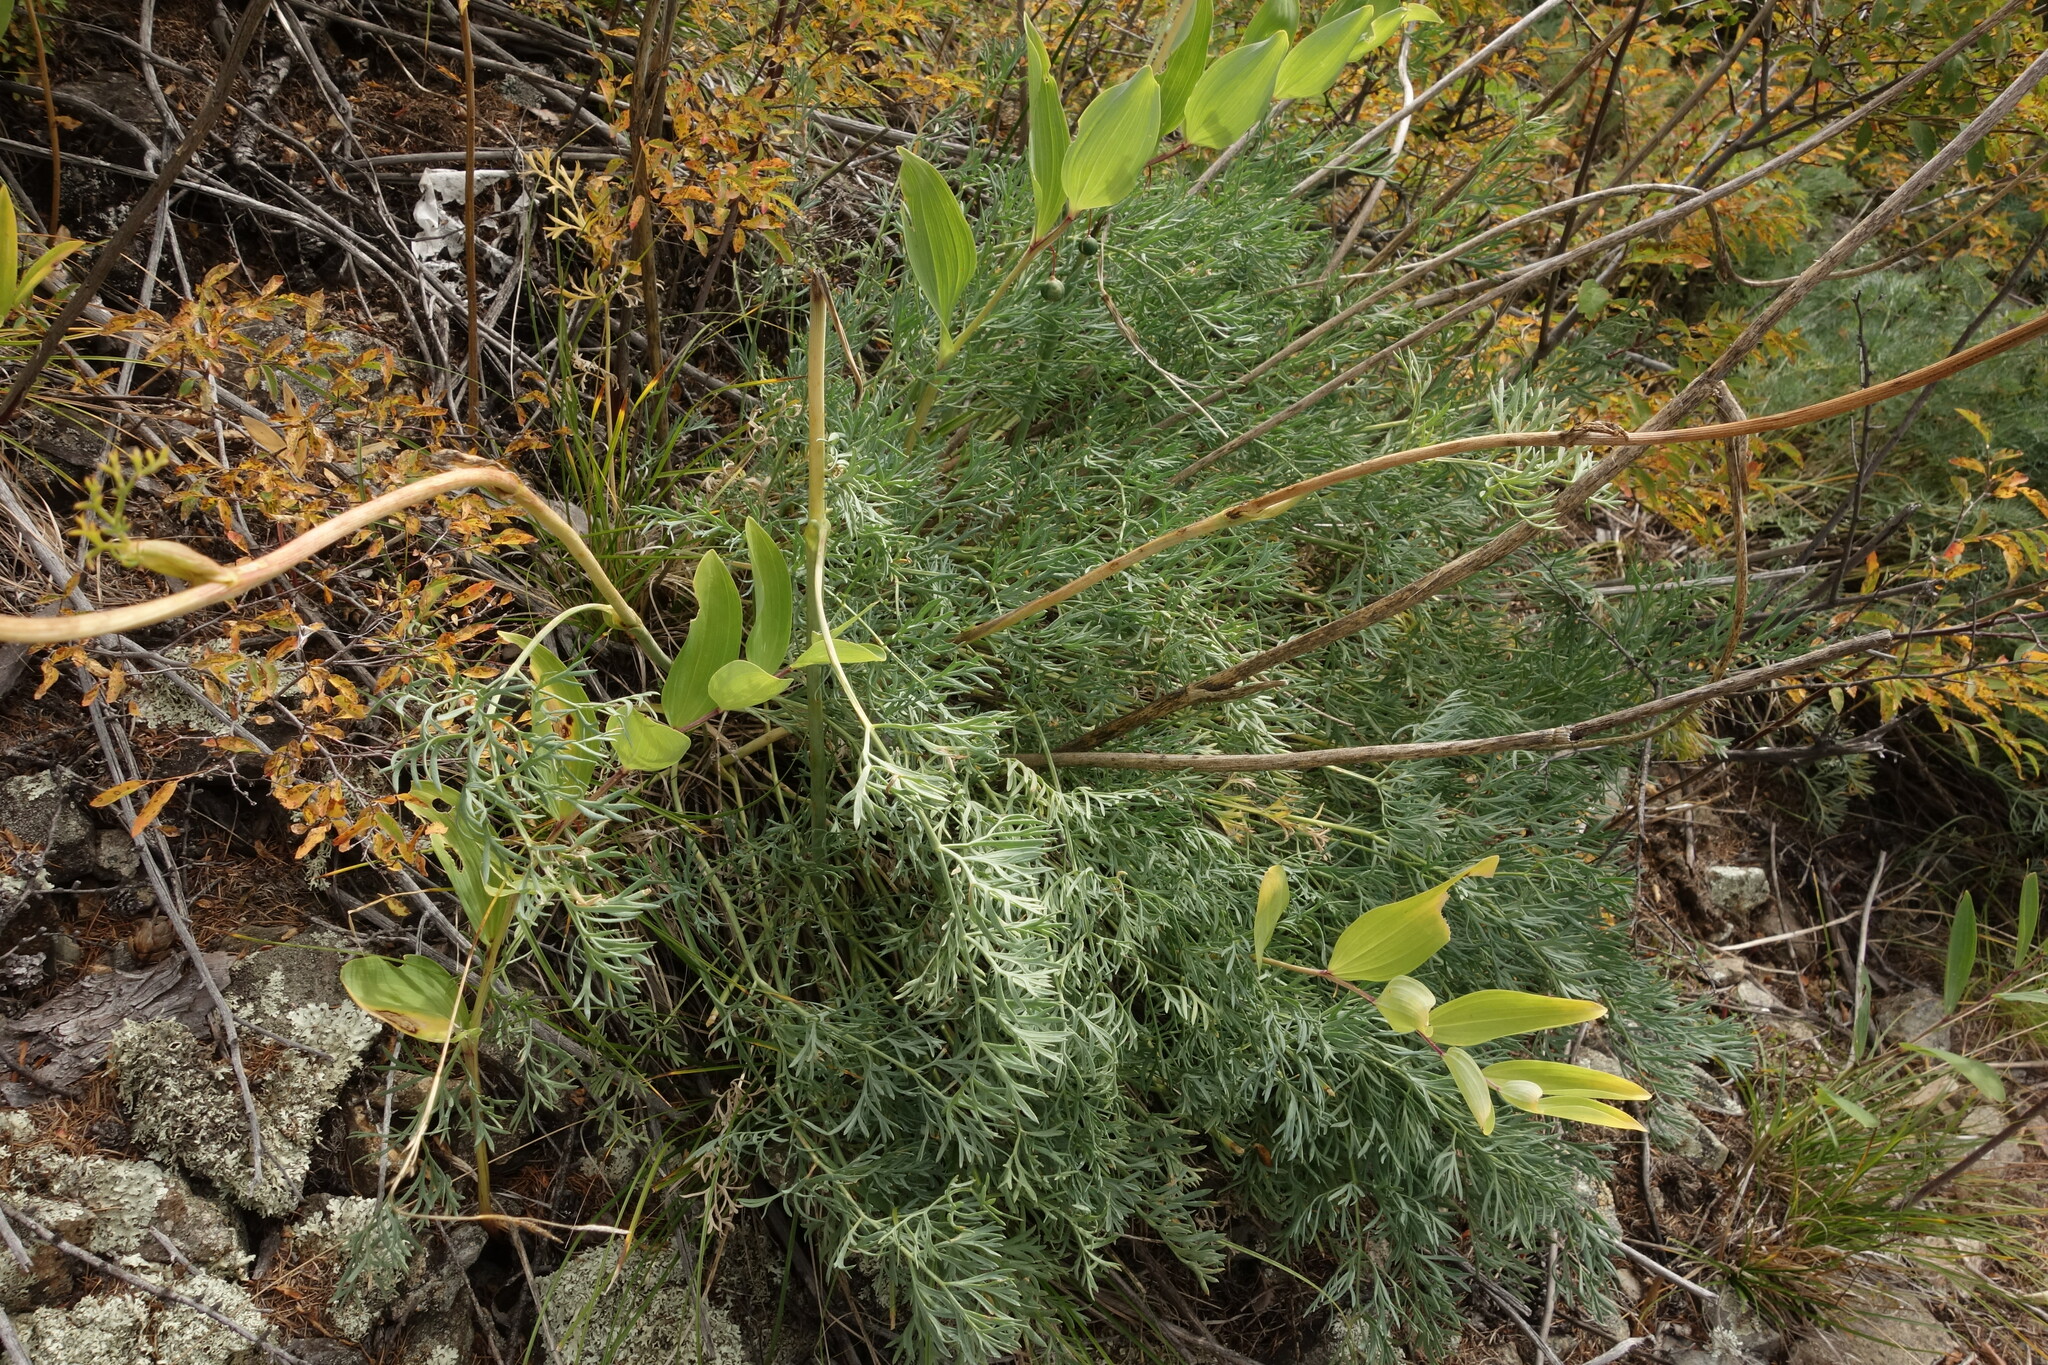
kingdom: Plantae
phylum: Tracheophyta
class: Magnoliopsida
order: Apiales
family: Apiaceae
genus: Phlojodicarpus
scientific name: Phlojodicarpus sibiricus
